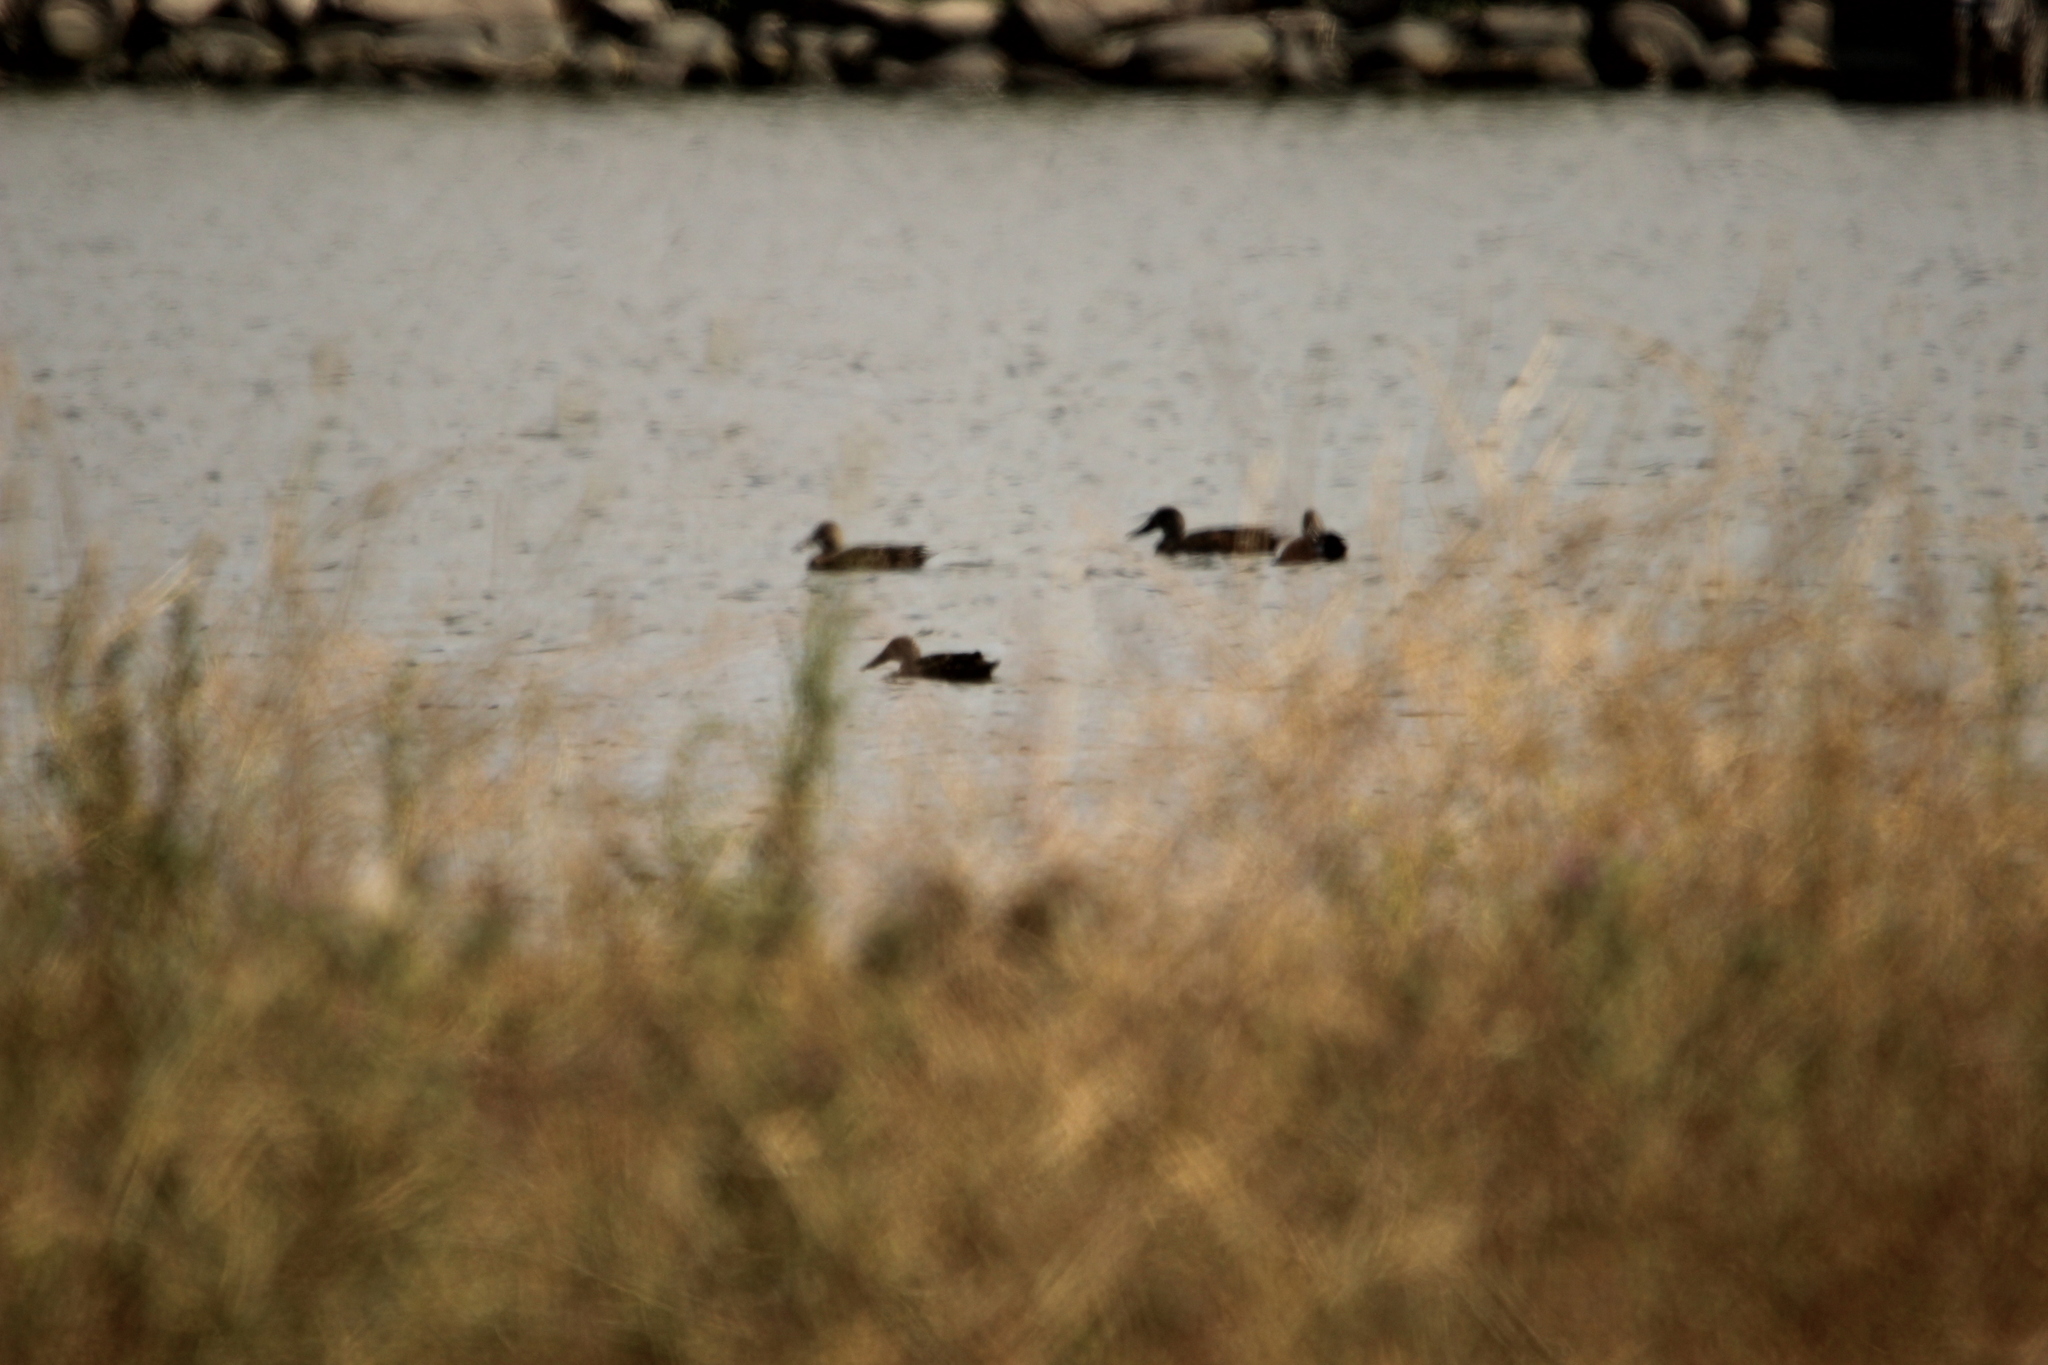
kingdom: Animalia
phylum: Chordata
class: Aves
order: Anseriformes
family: Anatidae
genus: Spatula
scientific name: Spatula rhynchotis
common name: Australian shoveler
